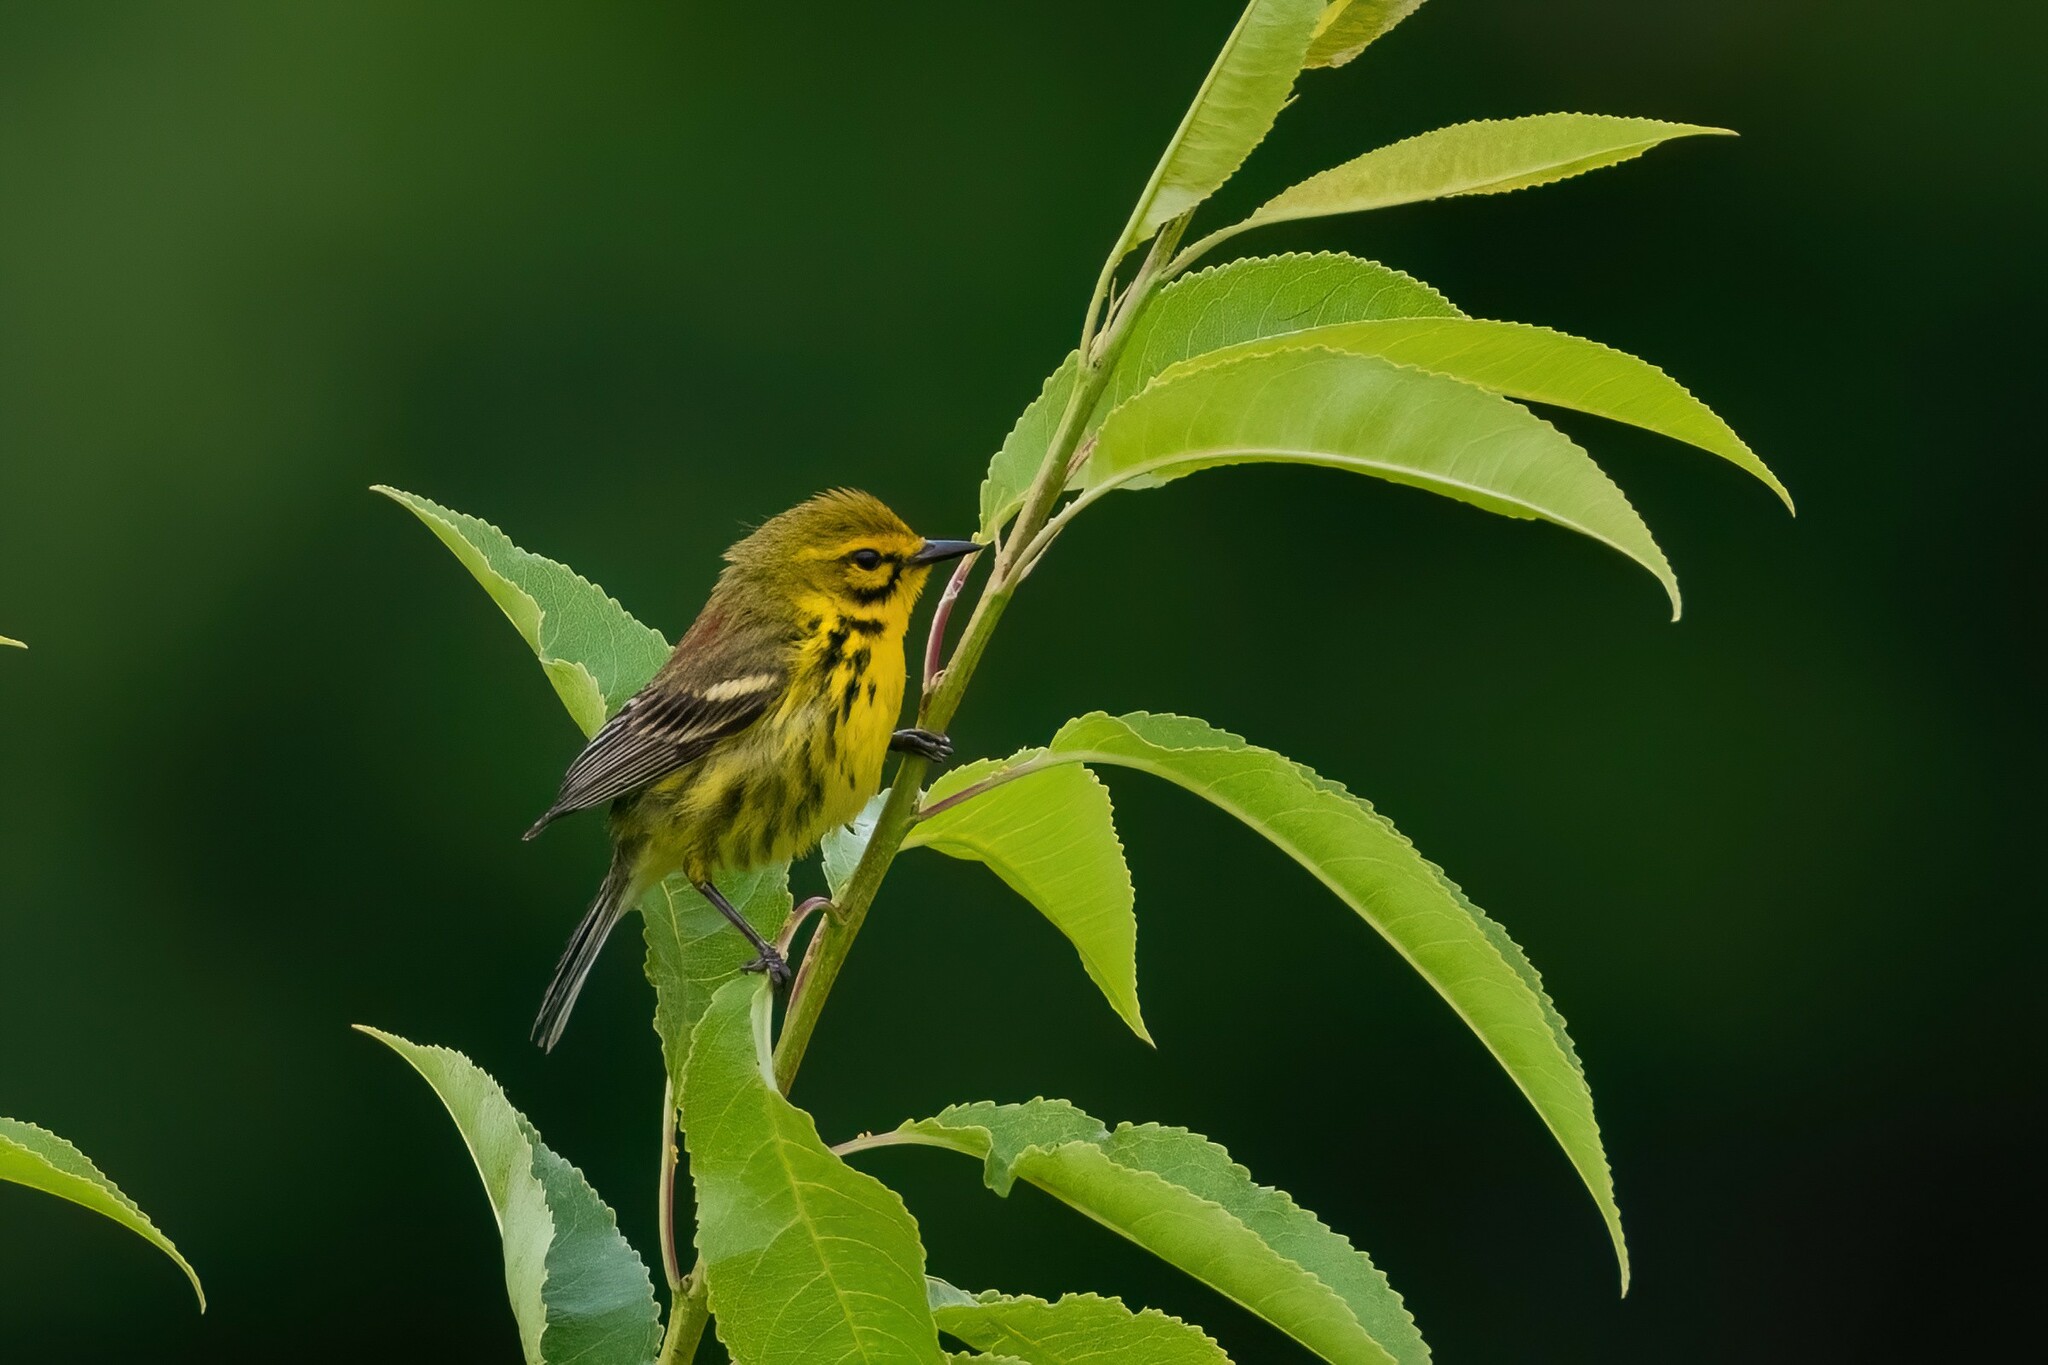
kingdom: Animalia
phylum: Chordata
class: Aves
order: Passeriformes
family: Parulidae
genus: Setophaga
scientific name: Setophaga discolor
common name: Prairie warbler
